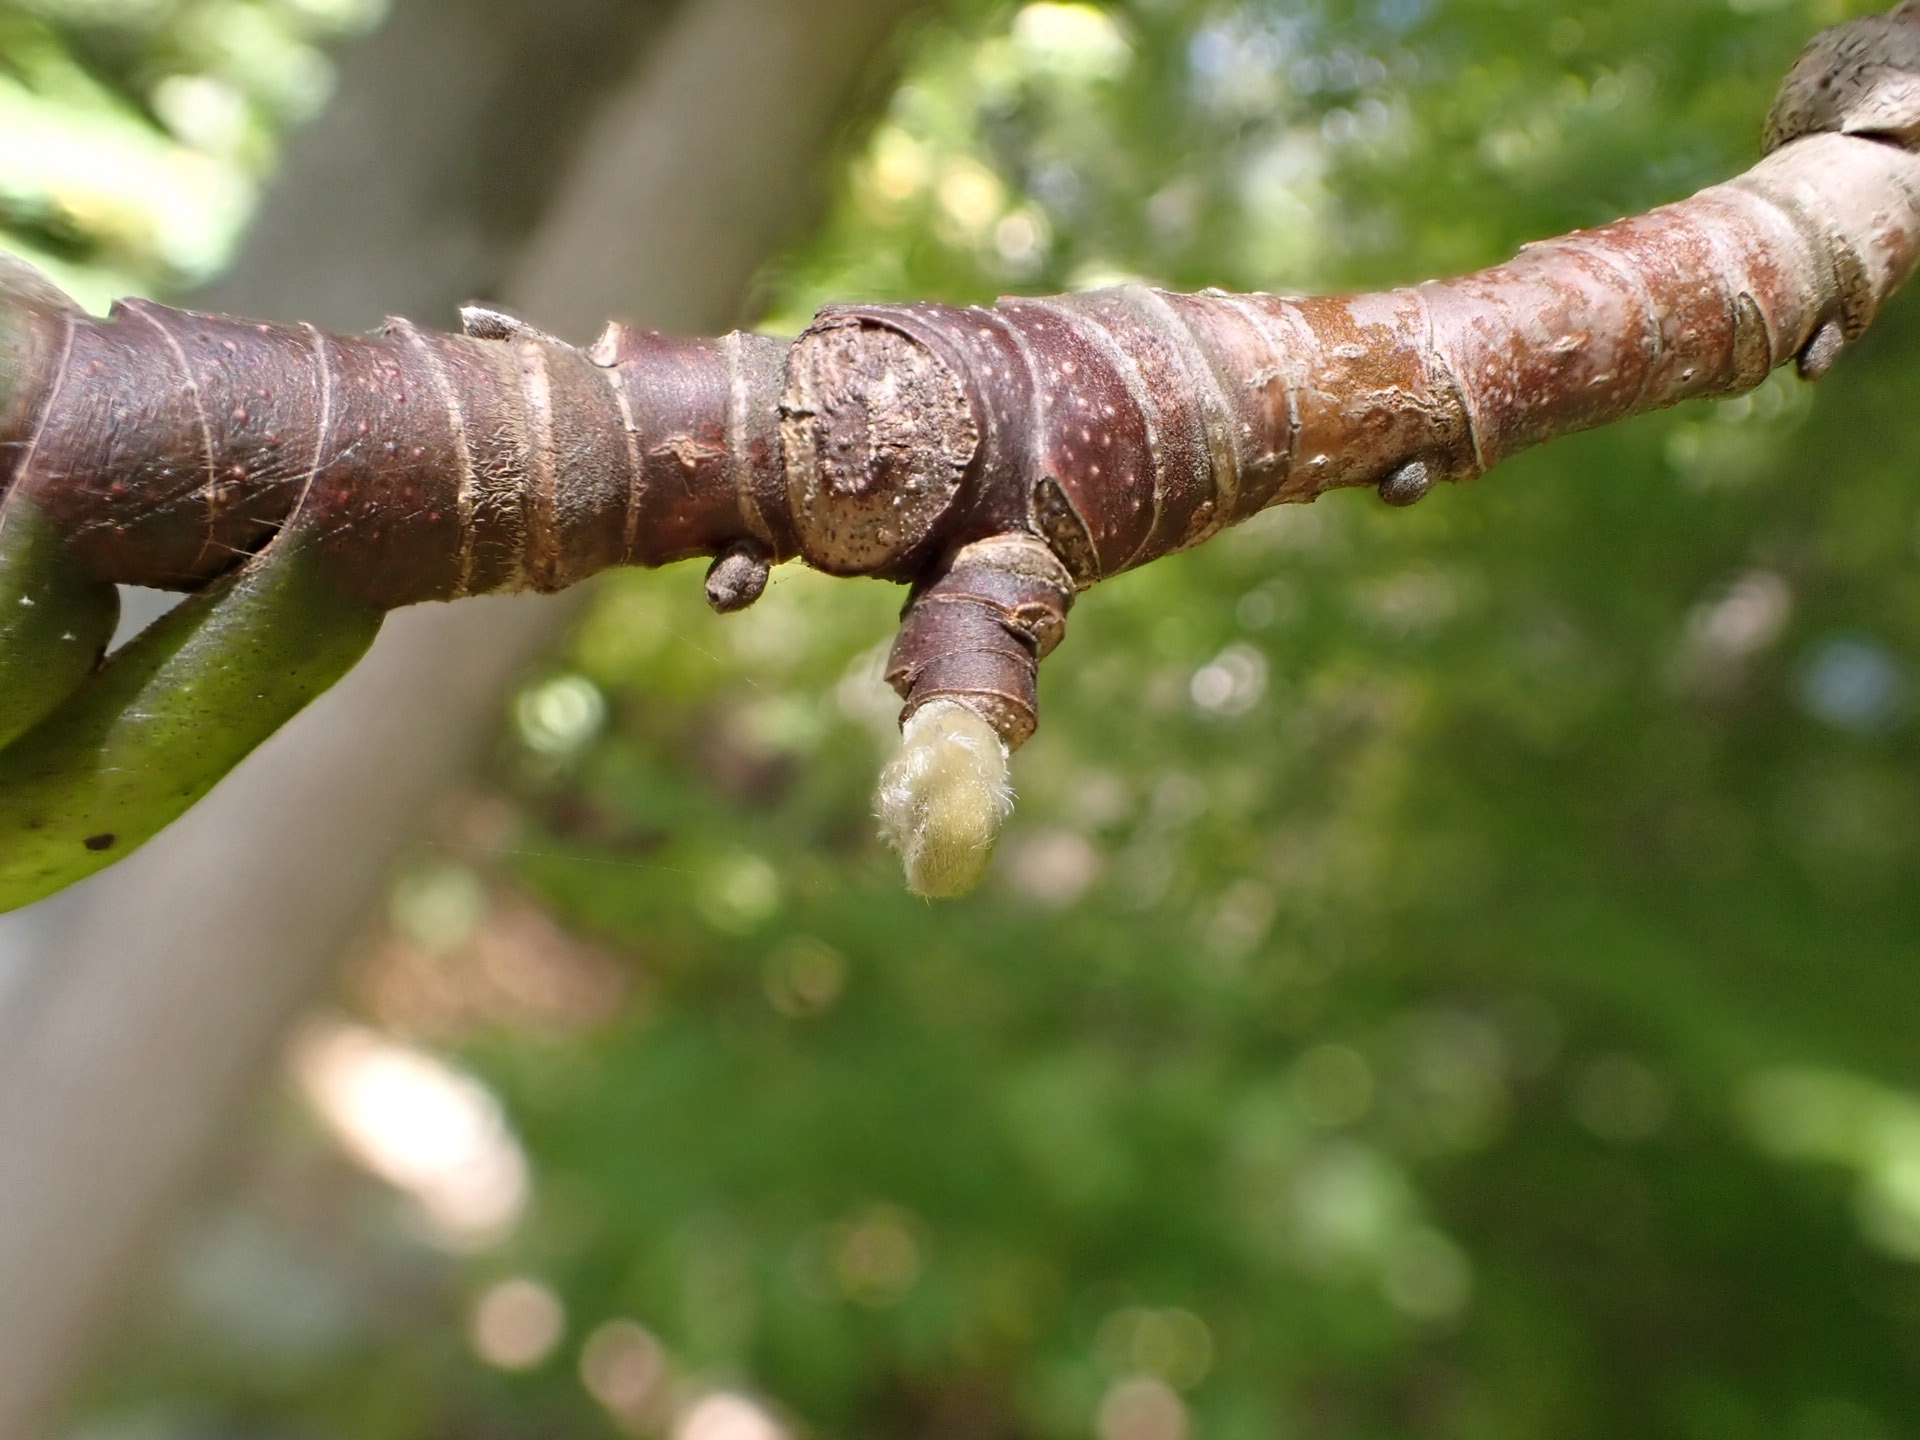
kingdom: Plantae
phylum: Tracheophyta
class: Magnoliopsida
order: Magnoliales
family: Magnoliaceae
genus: Magnolia
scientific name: Magnolia acuminata
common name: Cucumber magnolia
